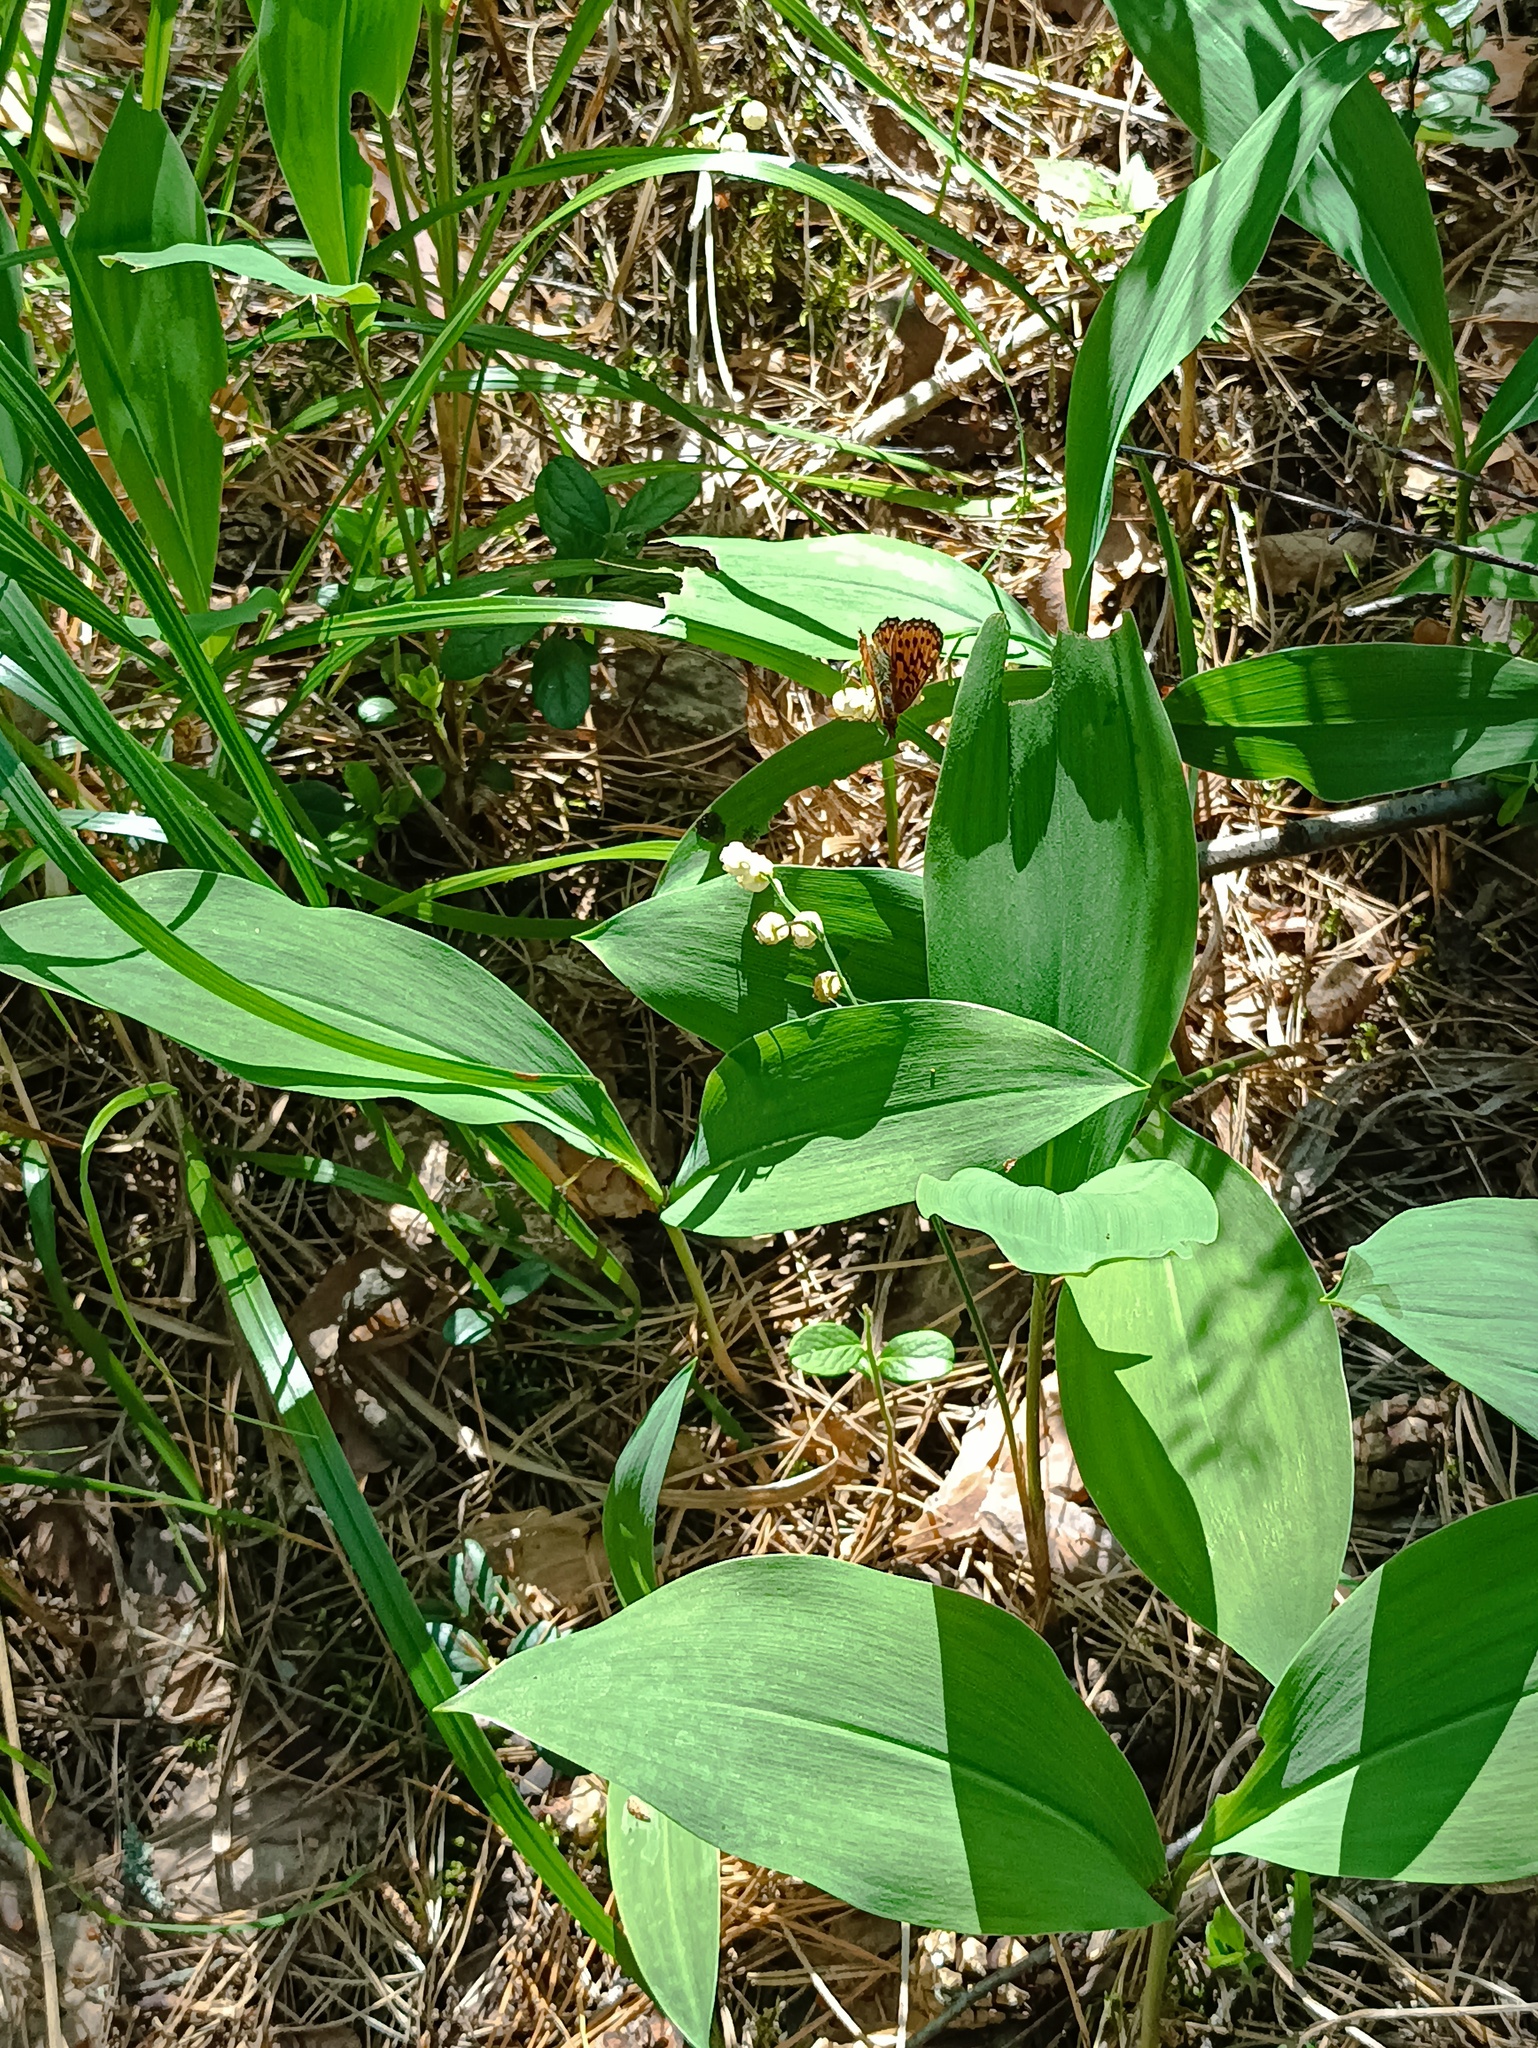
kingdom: Plantae
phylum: Tracheophyta
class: Liliopsida
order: Asparagales
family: Asparagaceae
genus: Convallaria
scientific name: Convallaria majalis
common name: Lily-of-the-valley
